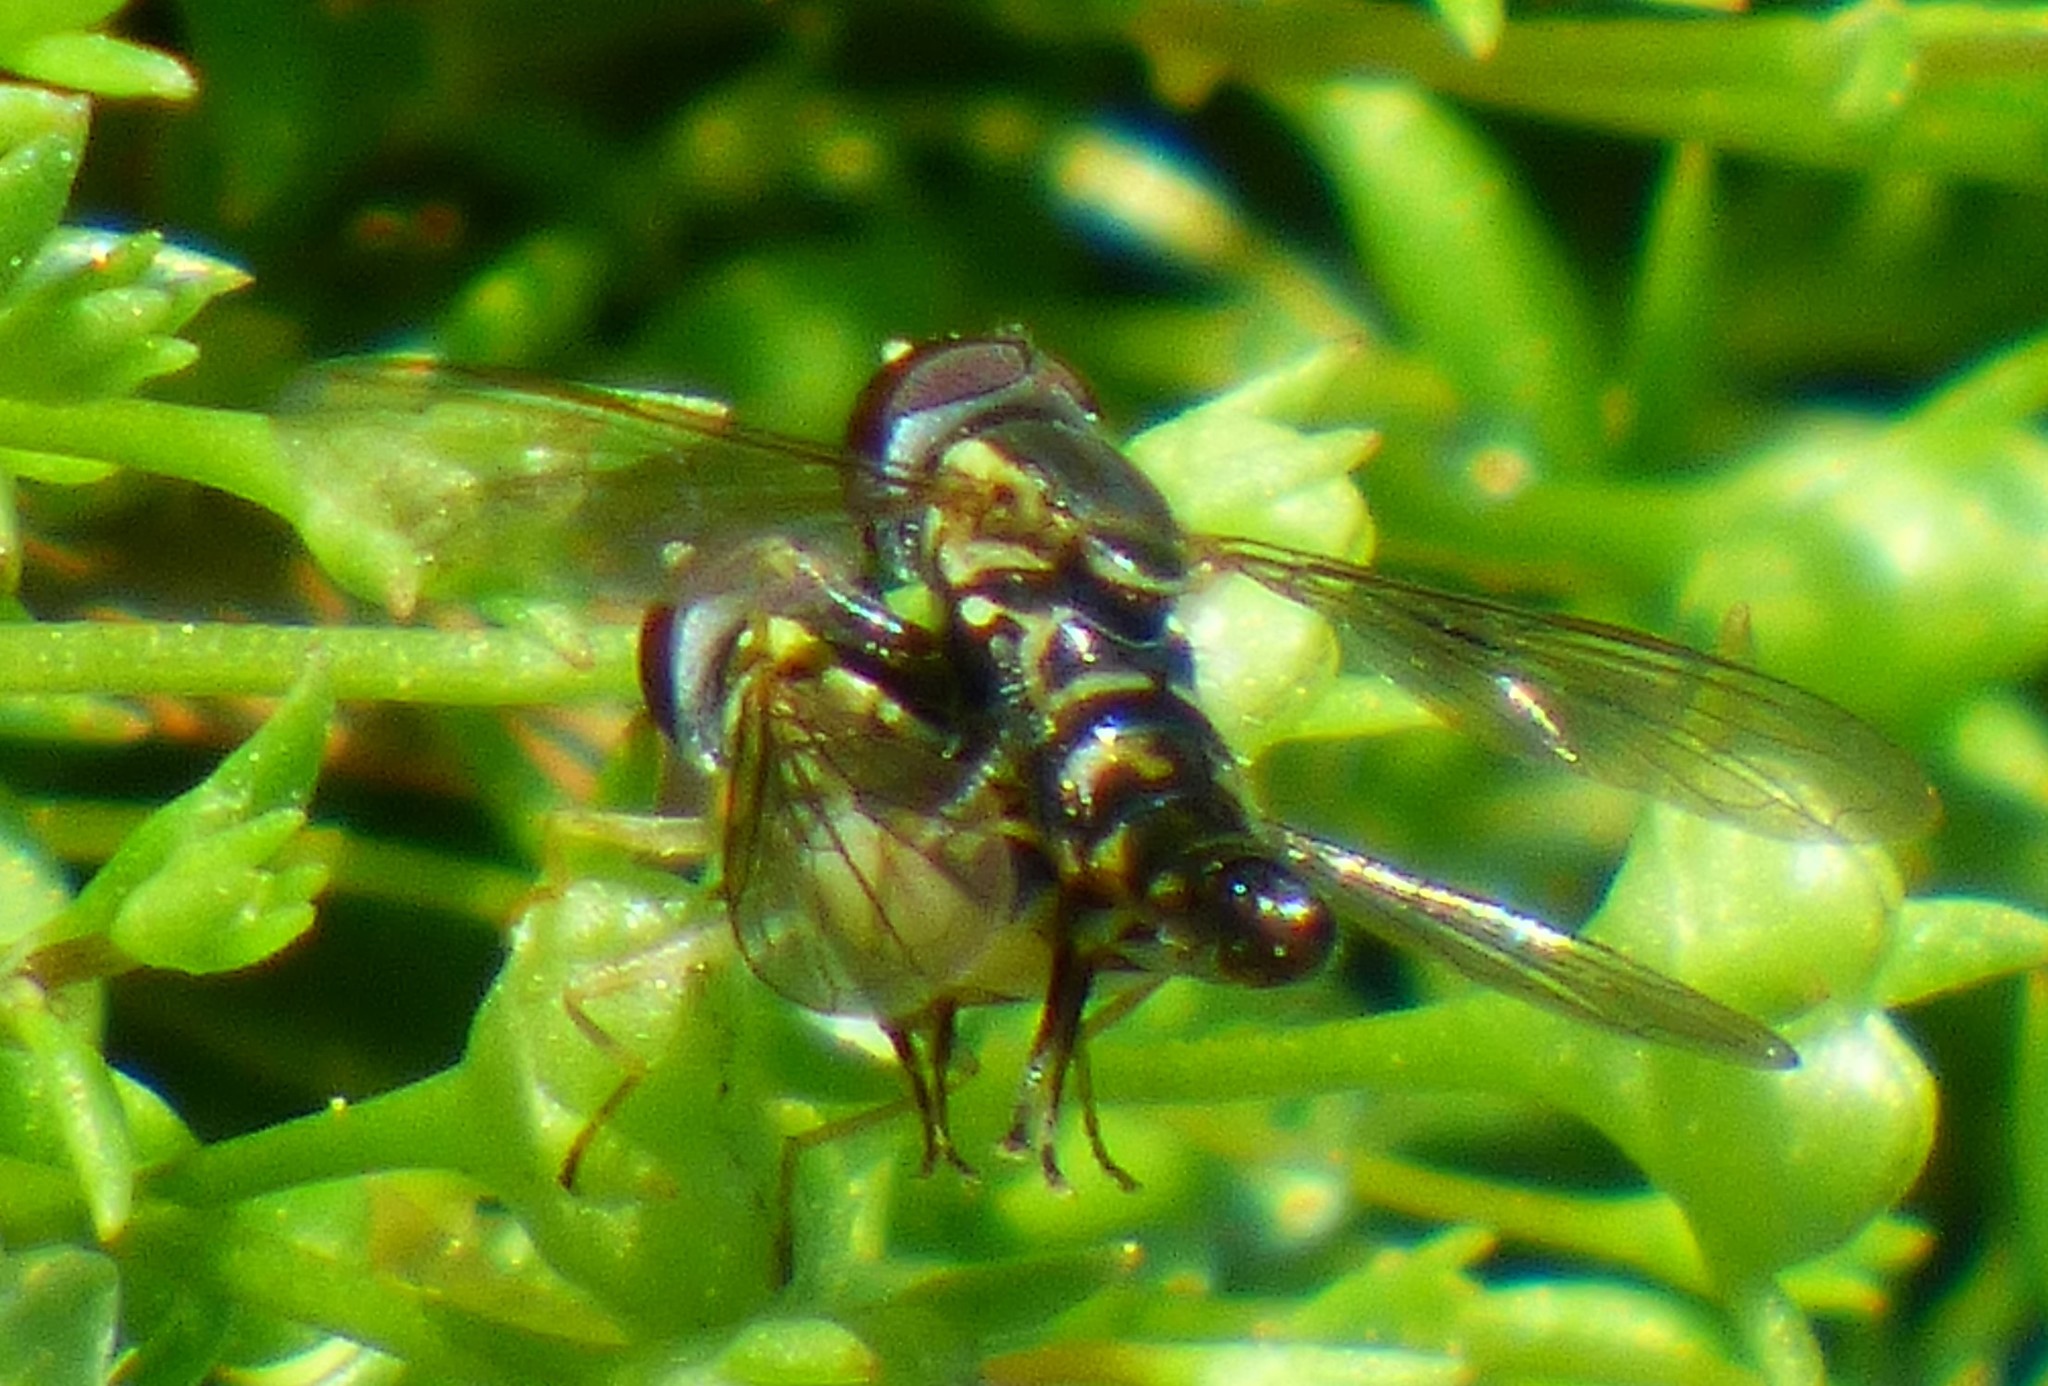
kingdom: Animalia
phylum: Arthropoda
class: Insecta
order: Diptera
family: Syrphidae
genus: Toxomerus
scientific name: Toxomerus geminatus
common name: Eastern calligrapher
